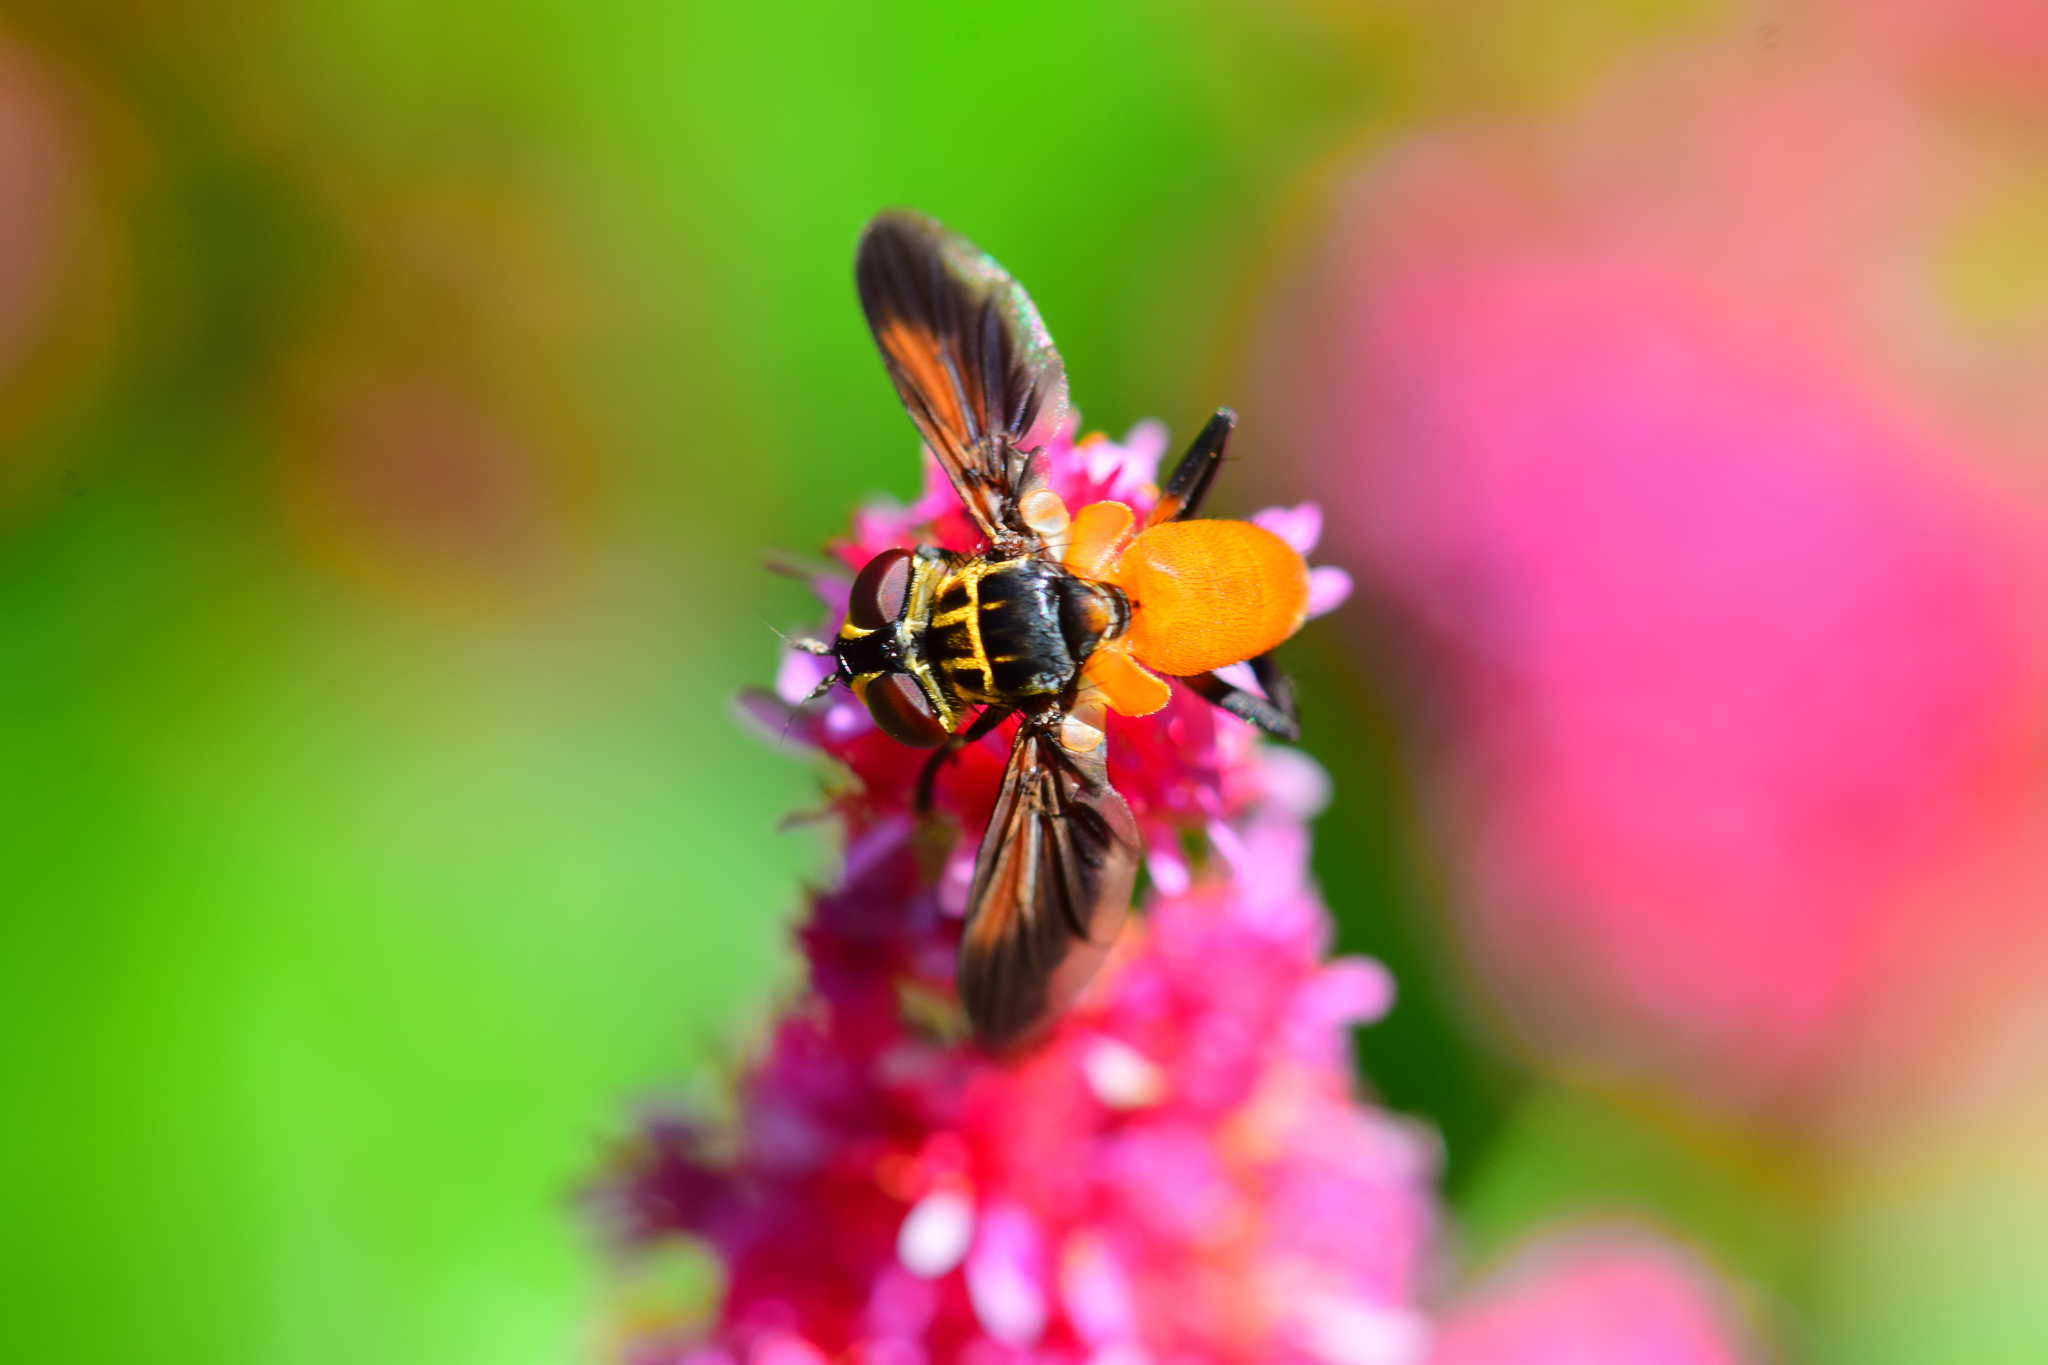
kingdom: Animalia
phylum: Arthropoda
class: Insecta
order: Diptera
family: Tachinidae
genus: Trichopoda
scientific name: Trichopoda pennipes
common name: Tachinid fly
